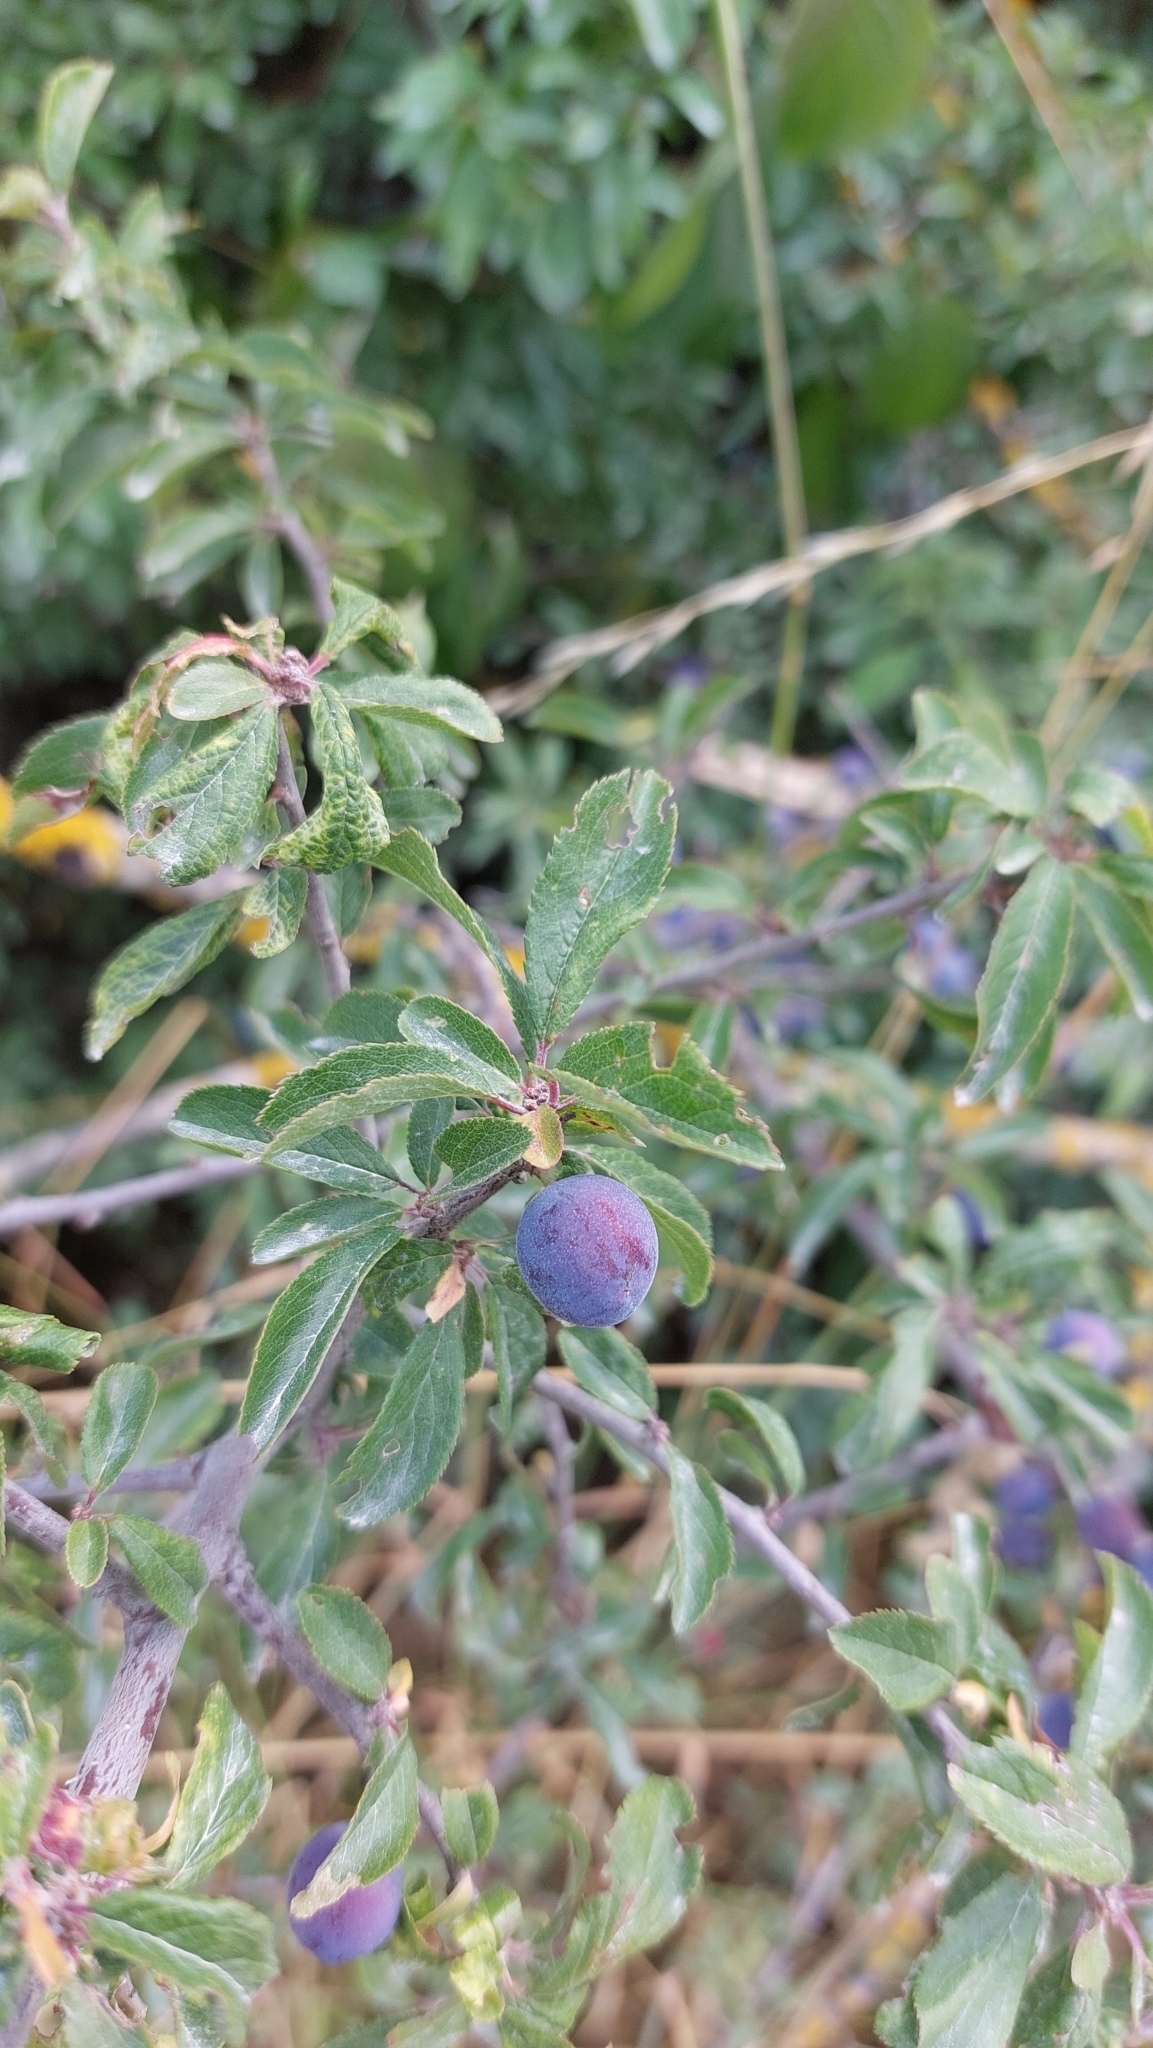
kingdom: Plantae
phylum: Tracheophyta
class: Magnoliopsida
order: Rosales
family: Rosaceae
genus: Prunus
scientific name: Prunus spinosa
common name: Blackthorn
